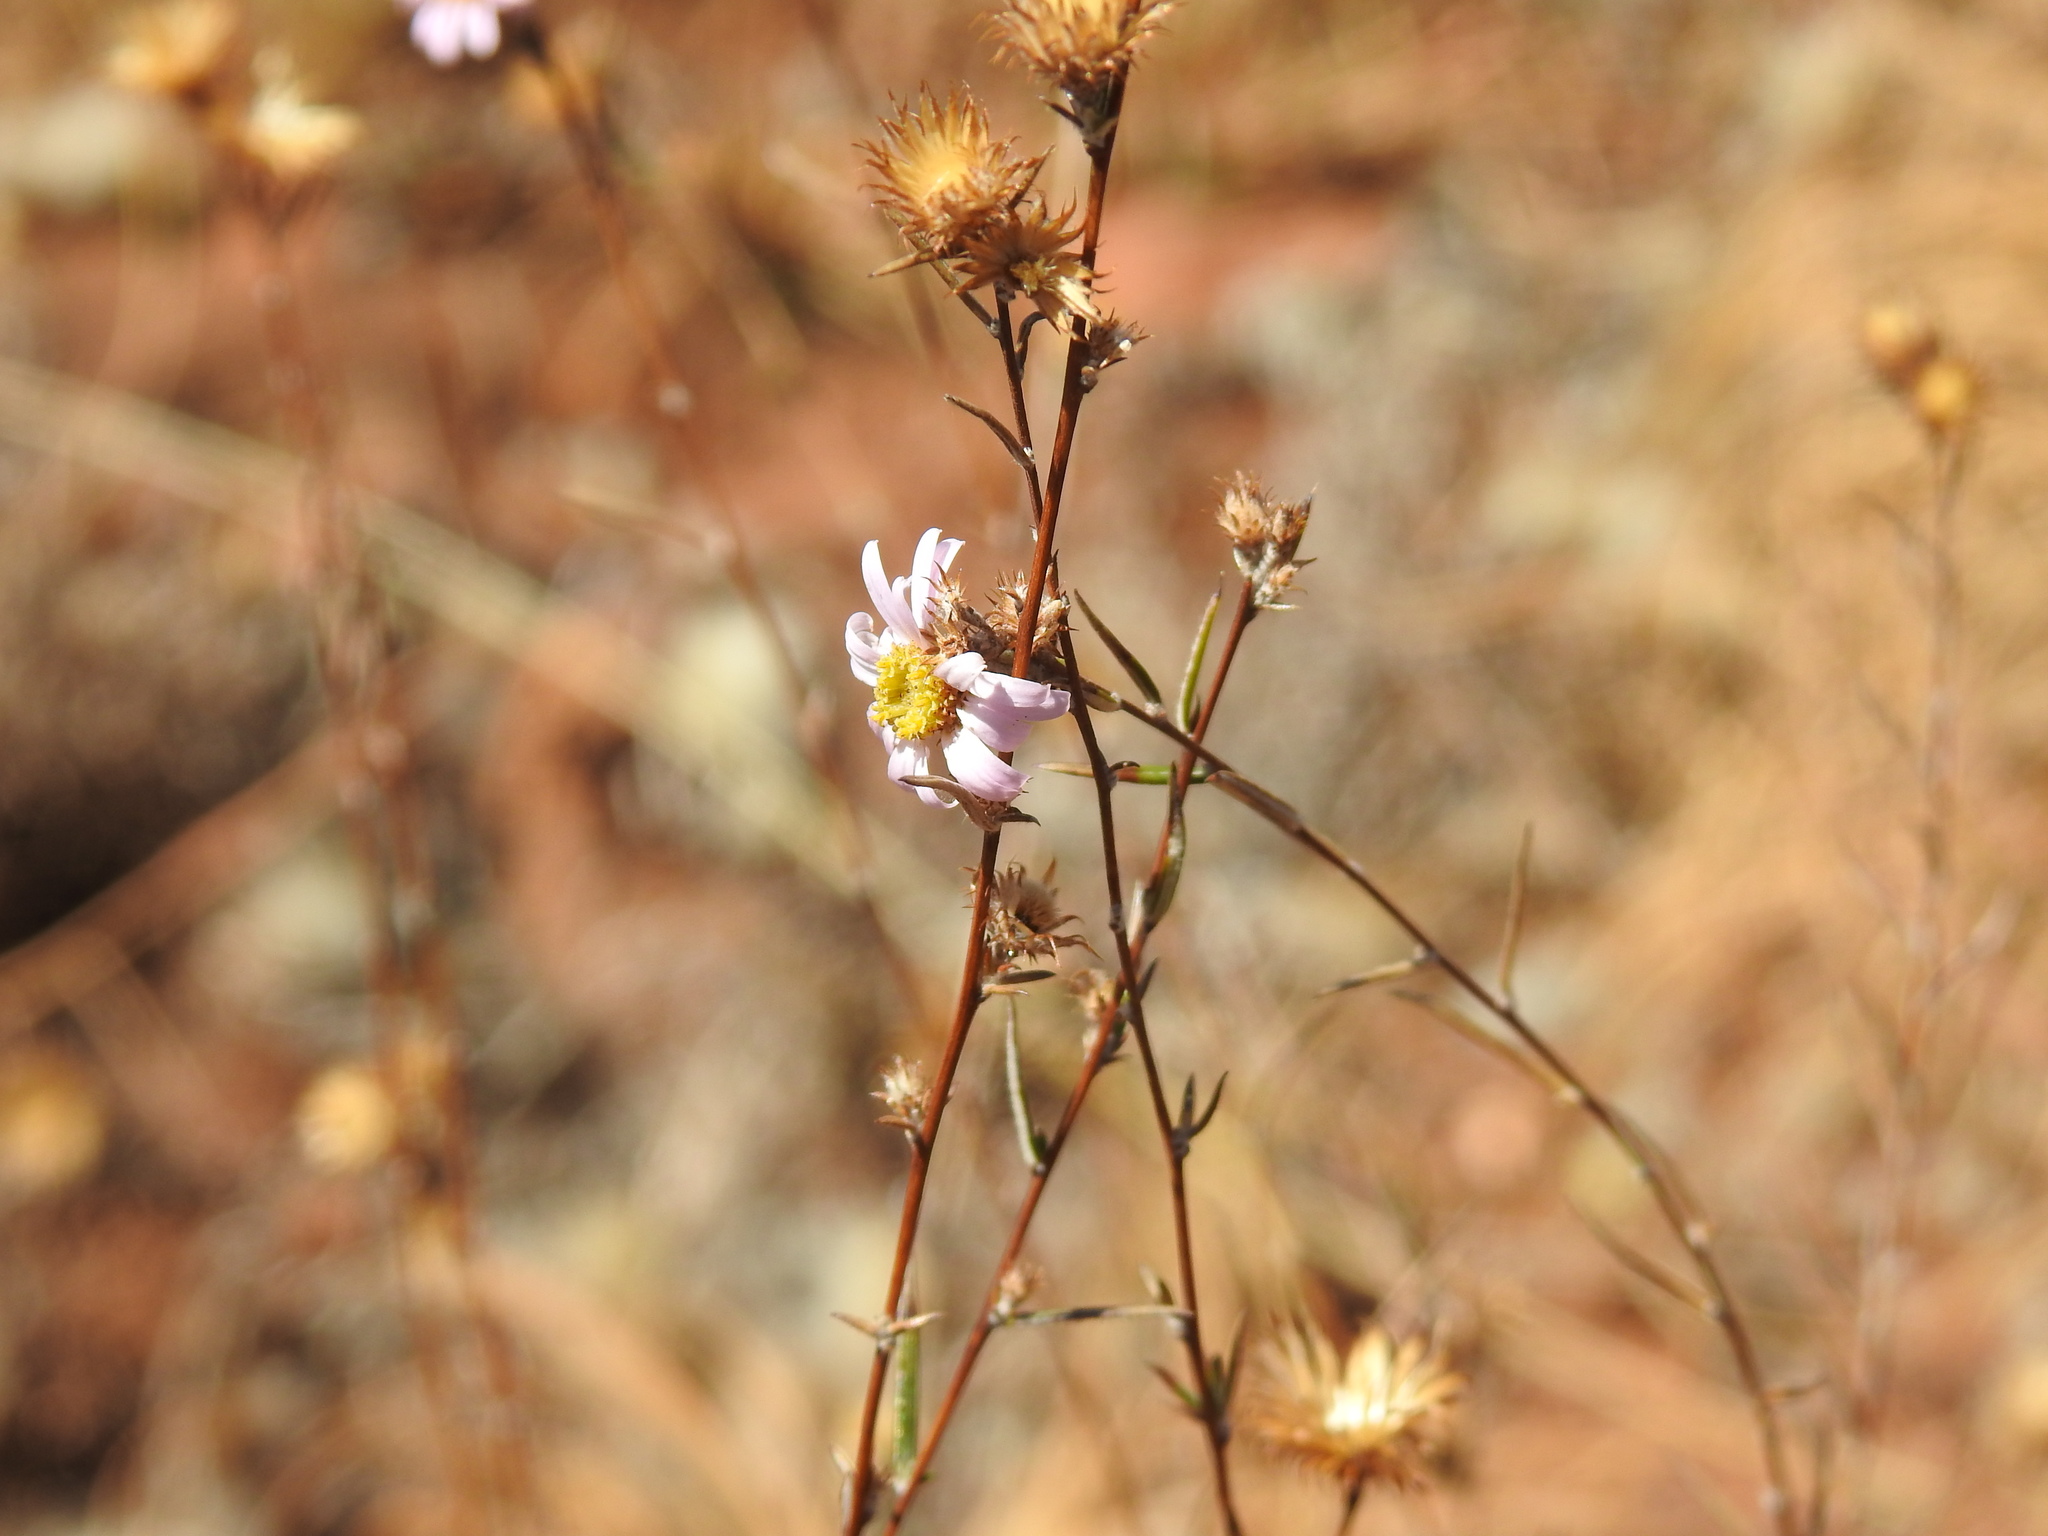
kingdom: Plantae
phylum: Tracheophyta
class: Magnoliopsida
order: Asterales
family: Asteraceae
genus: Athrixia
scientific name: Athrixia elata
